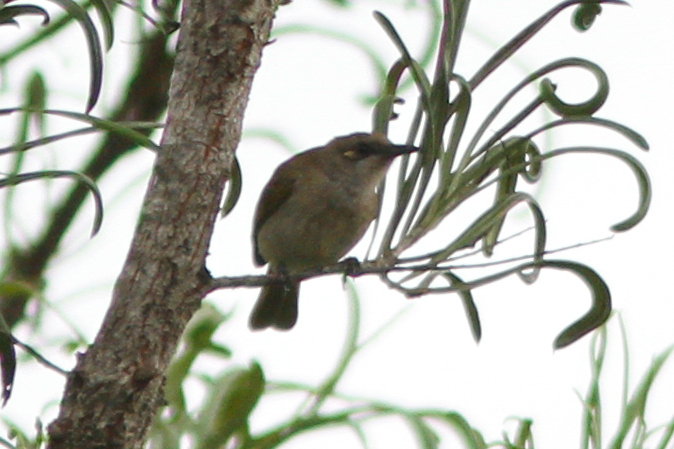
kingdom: Animalia
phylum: Chordata
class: Aves
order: Passeriformes
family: Meliphagidae
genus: Lichmera
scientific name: Lichmera indistincta
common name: Brown honeyeater
